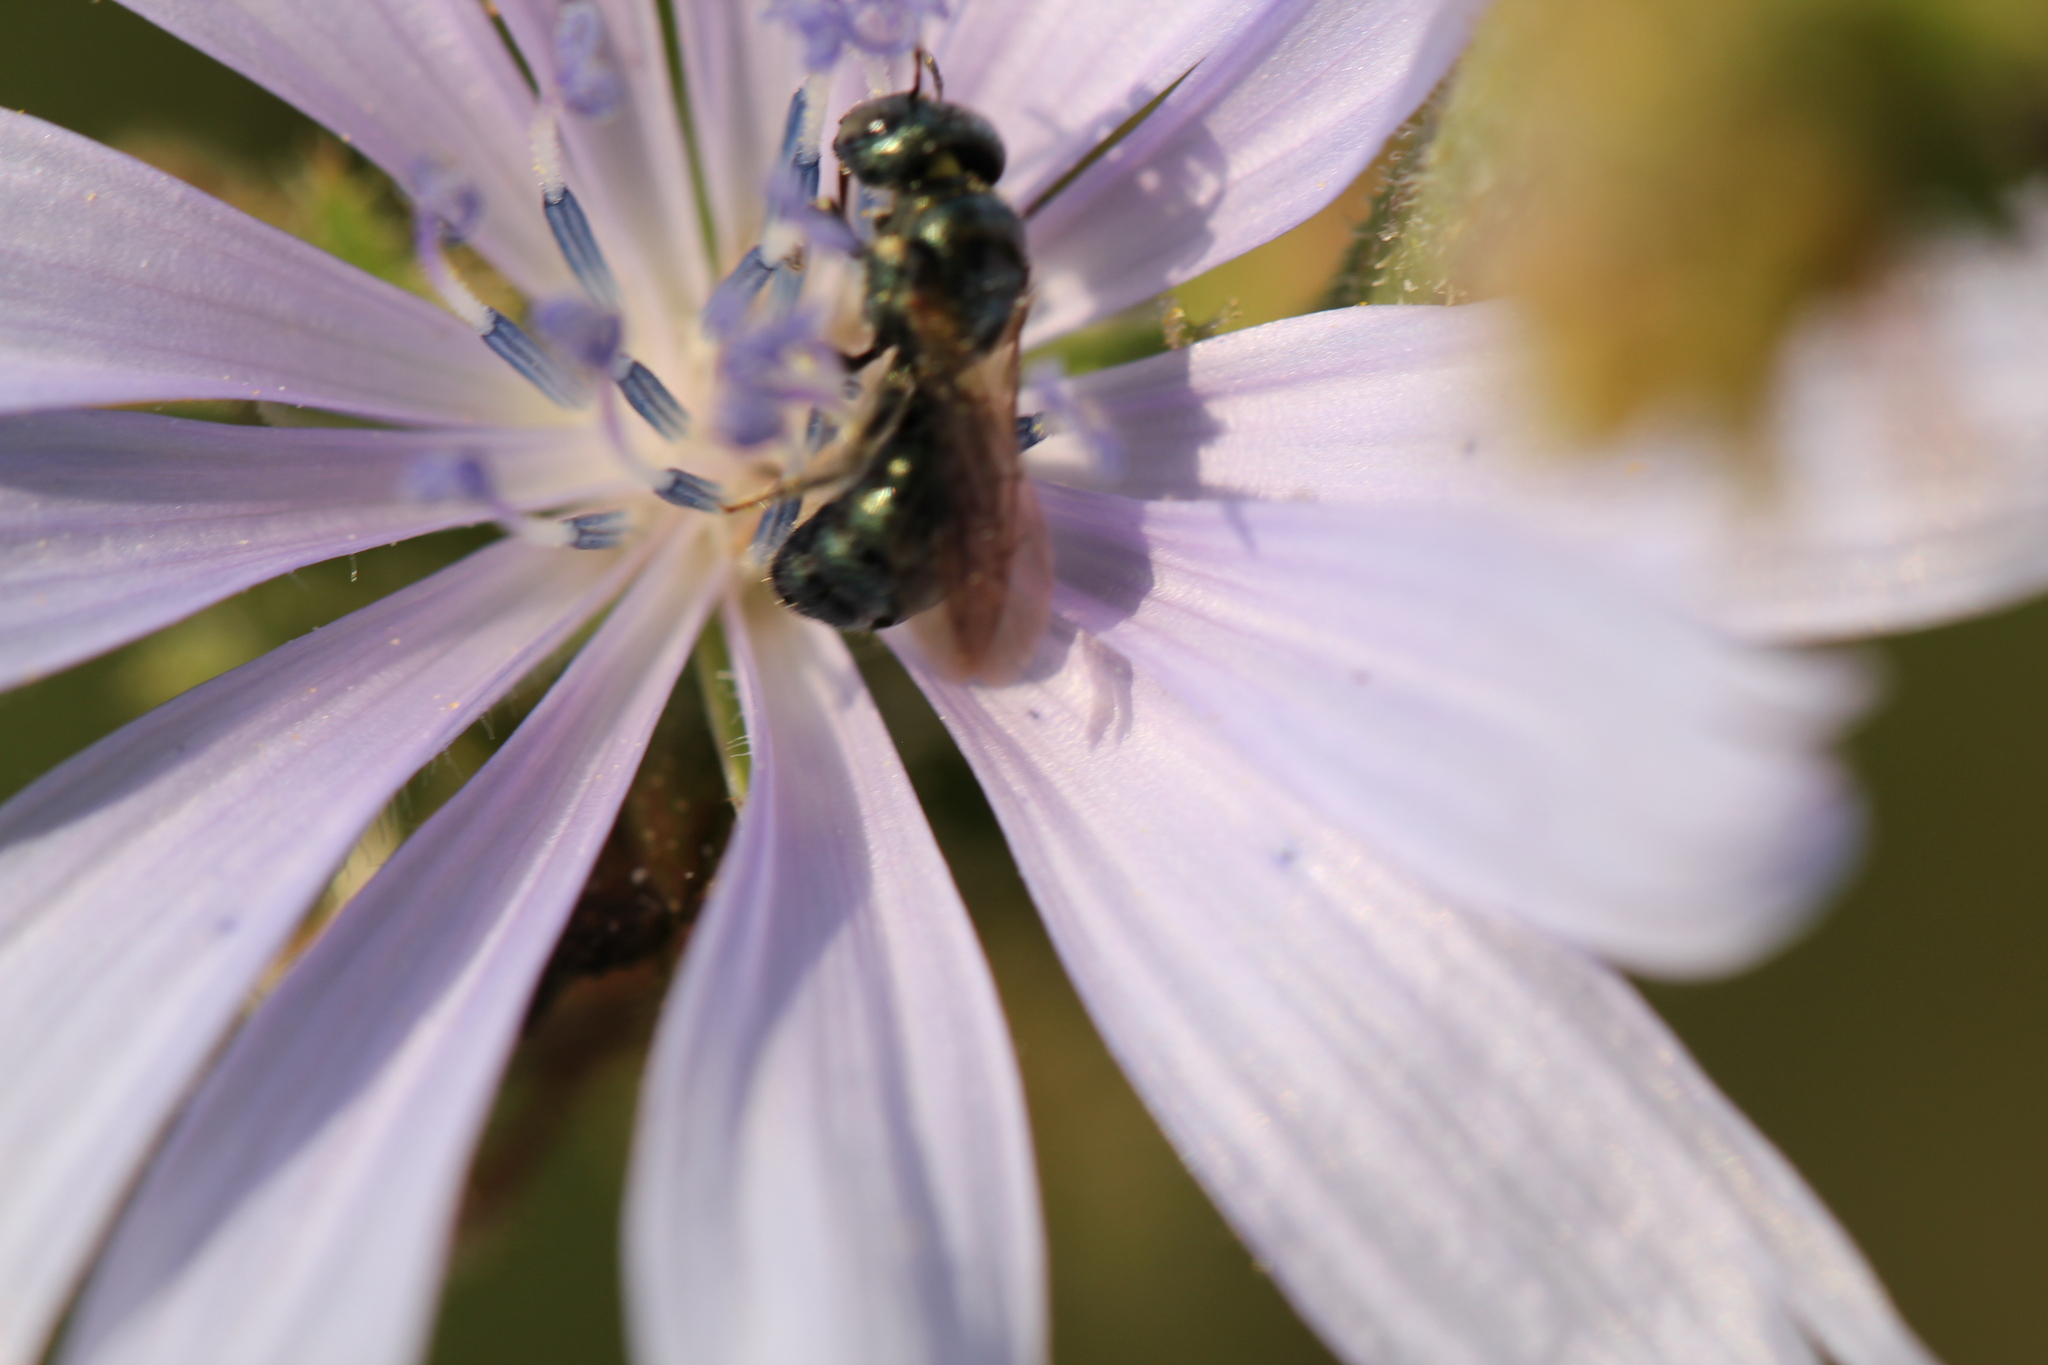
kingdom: Animalia
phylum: Arthropoda
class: Insecta
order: Hymenoptera
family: Apidae
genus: Zadontomerus
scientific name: Zadontomerus
